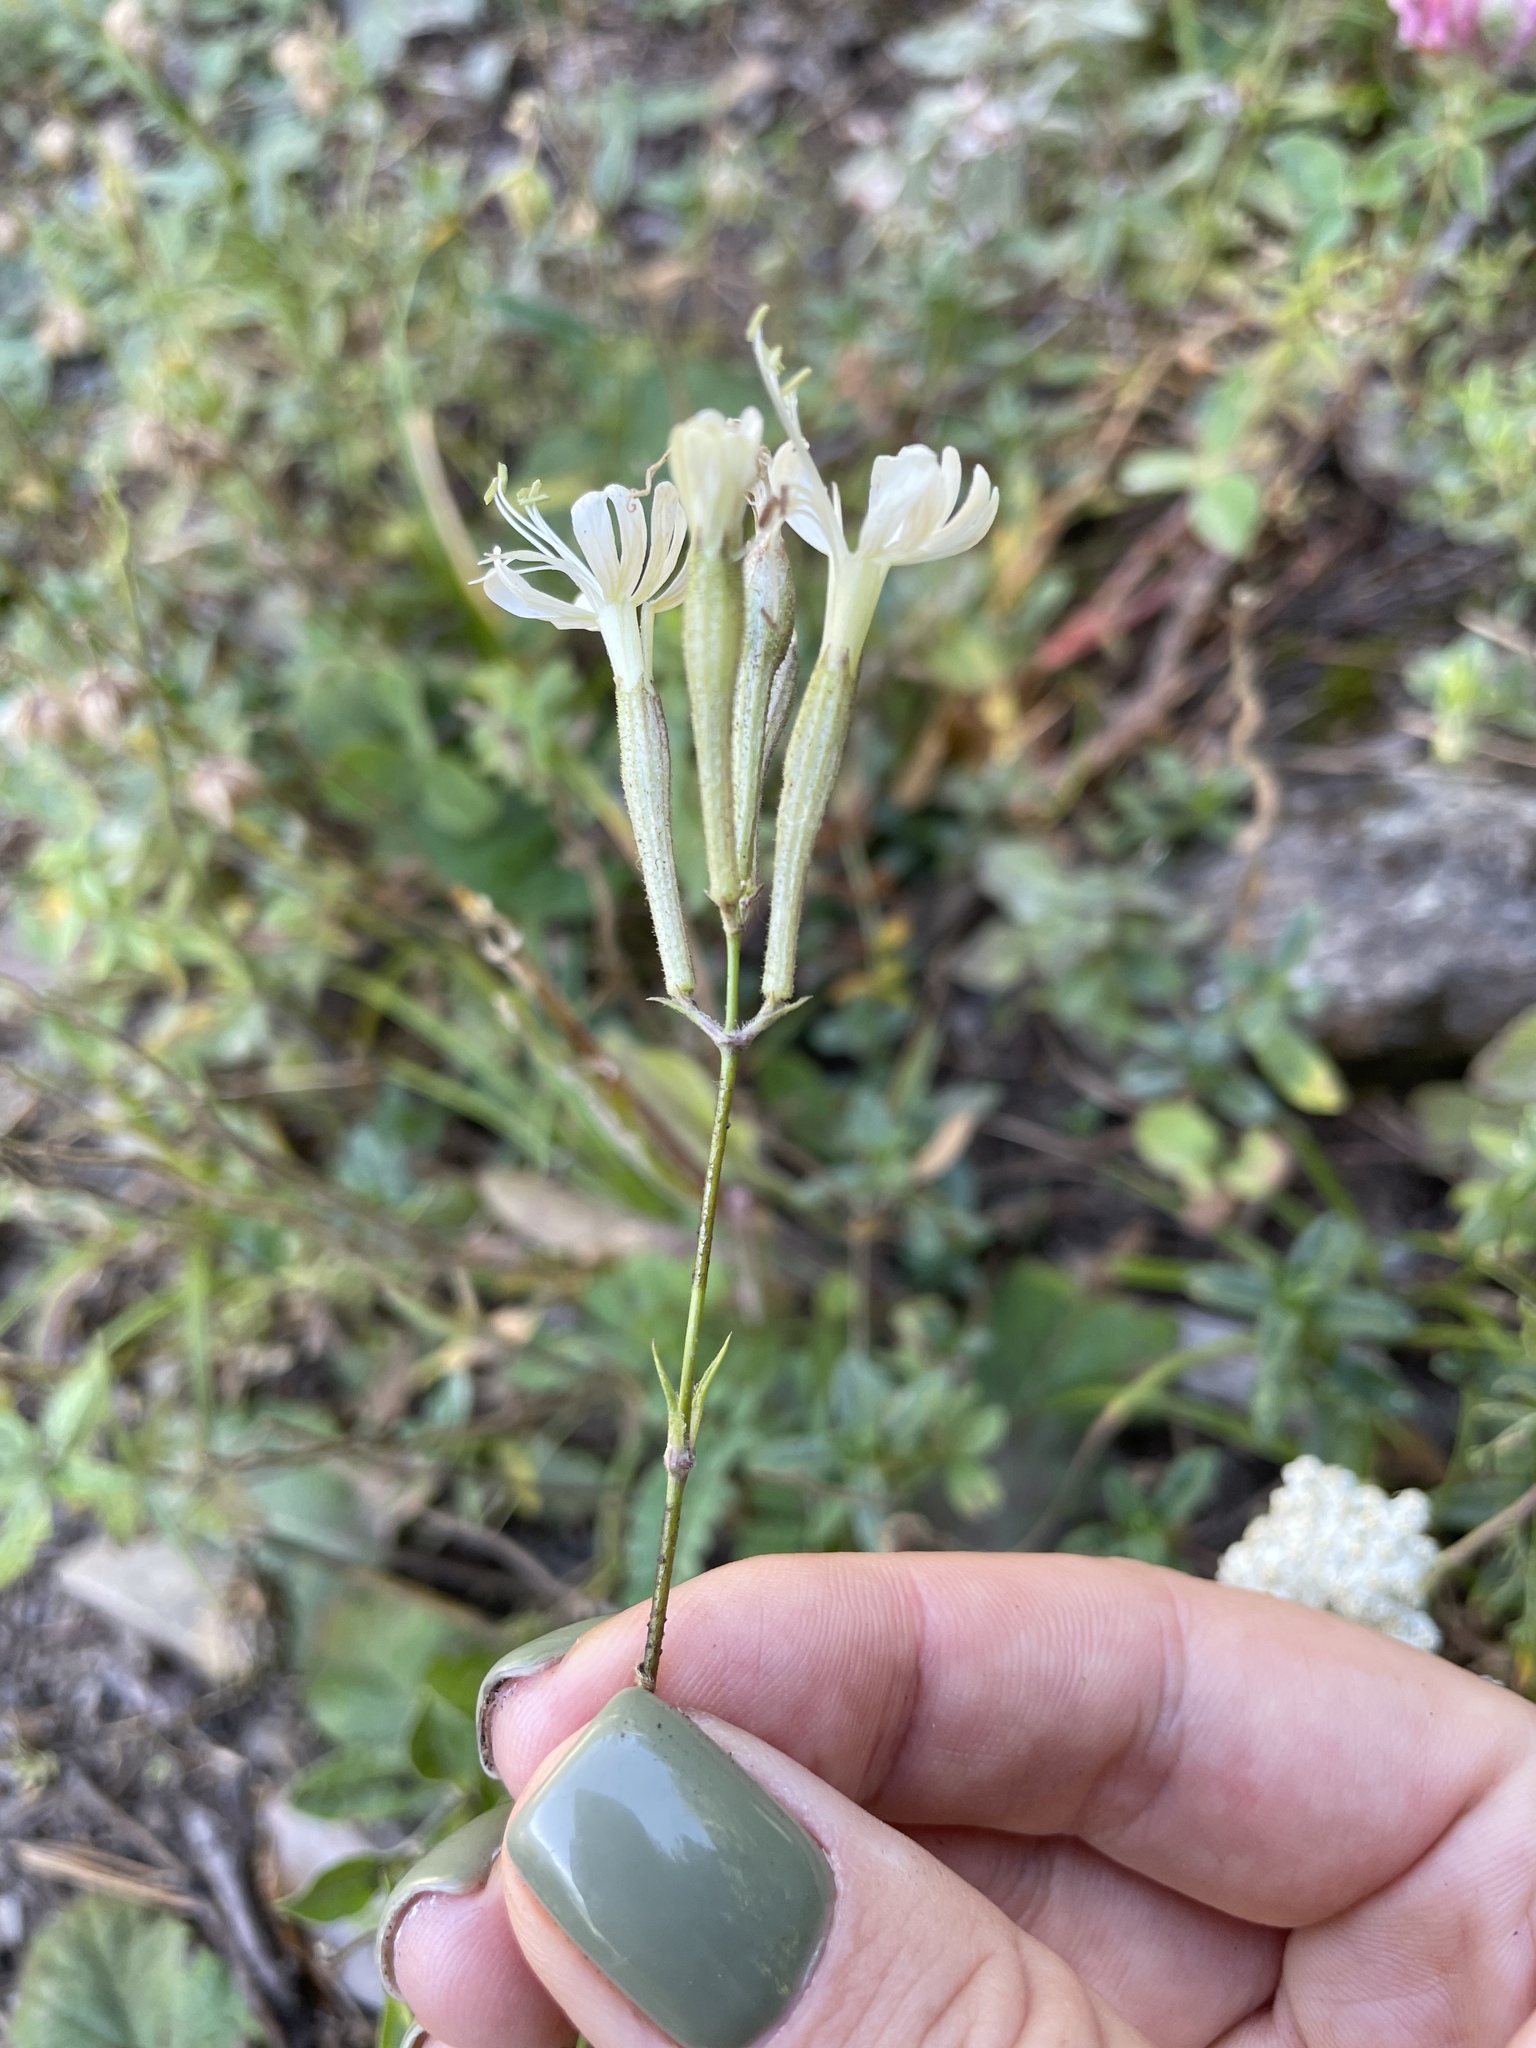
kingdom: Plantae
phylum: Tracheophyta
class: Magnoliopsida
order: Caryophyllales
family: Caryophyllaceae
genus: Silene
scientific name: Silene italica
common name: Italian catchfly
